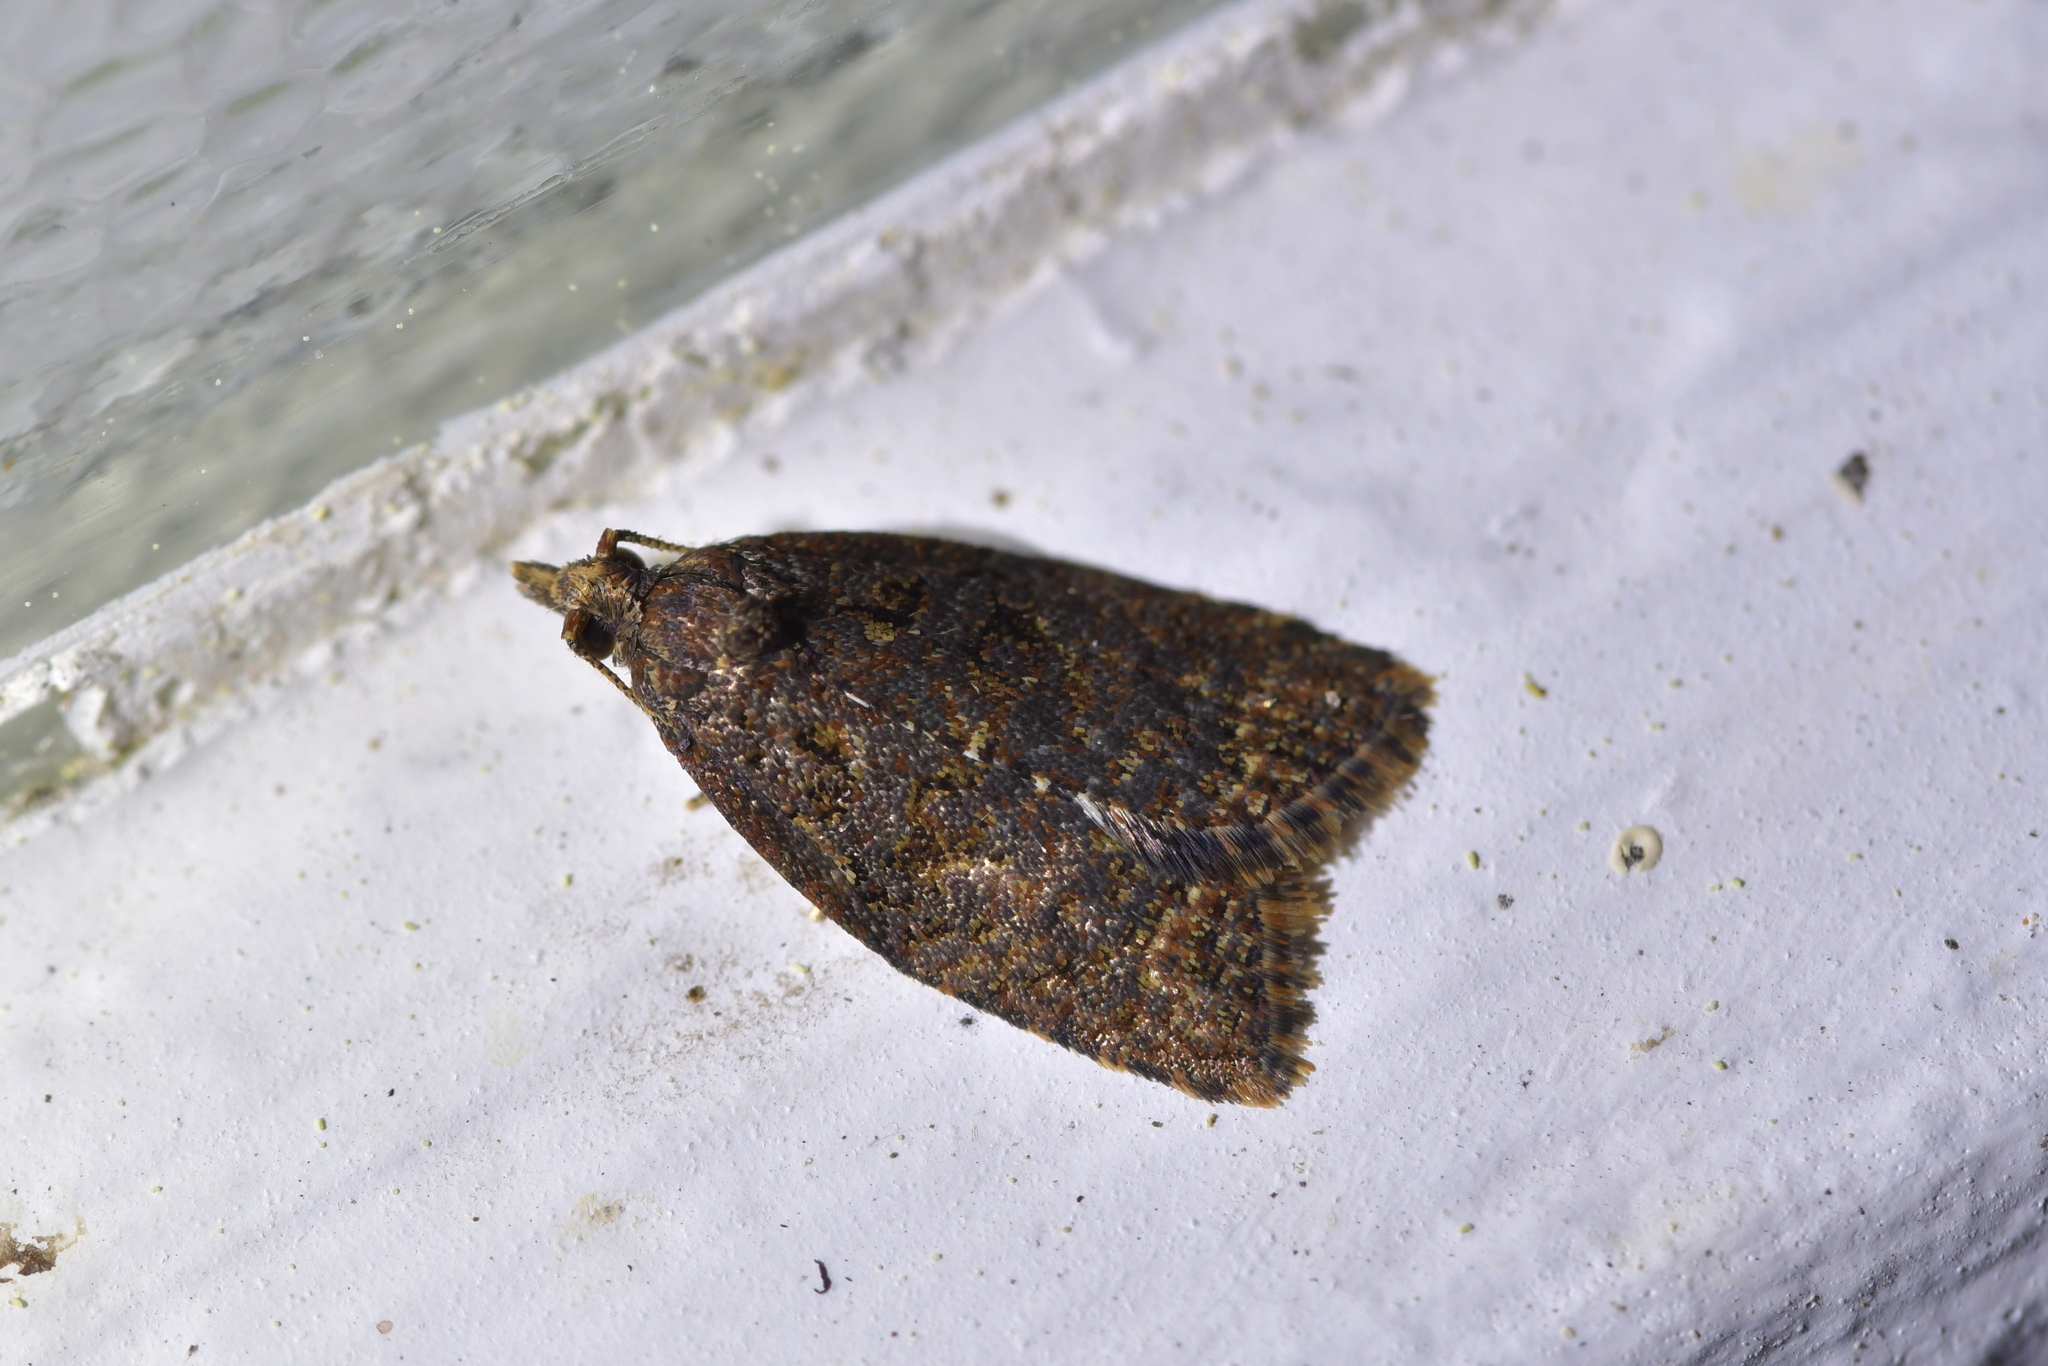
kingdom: Animalia
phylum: Arthropoda
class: Insecta
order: Lepidoptera
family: Tortricidae
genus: Capua
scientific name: Capua intractana
